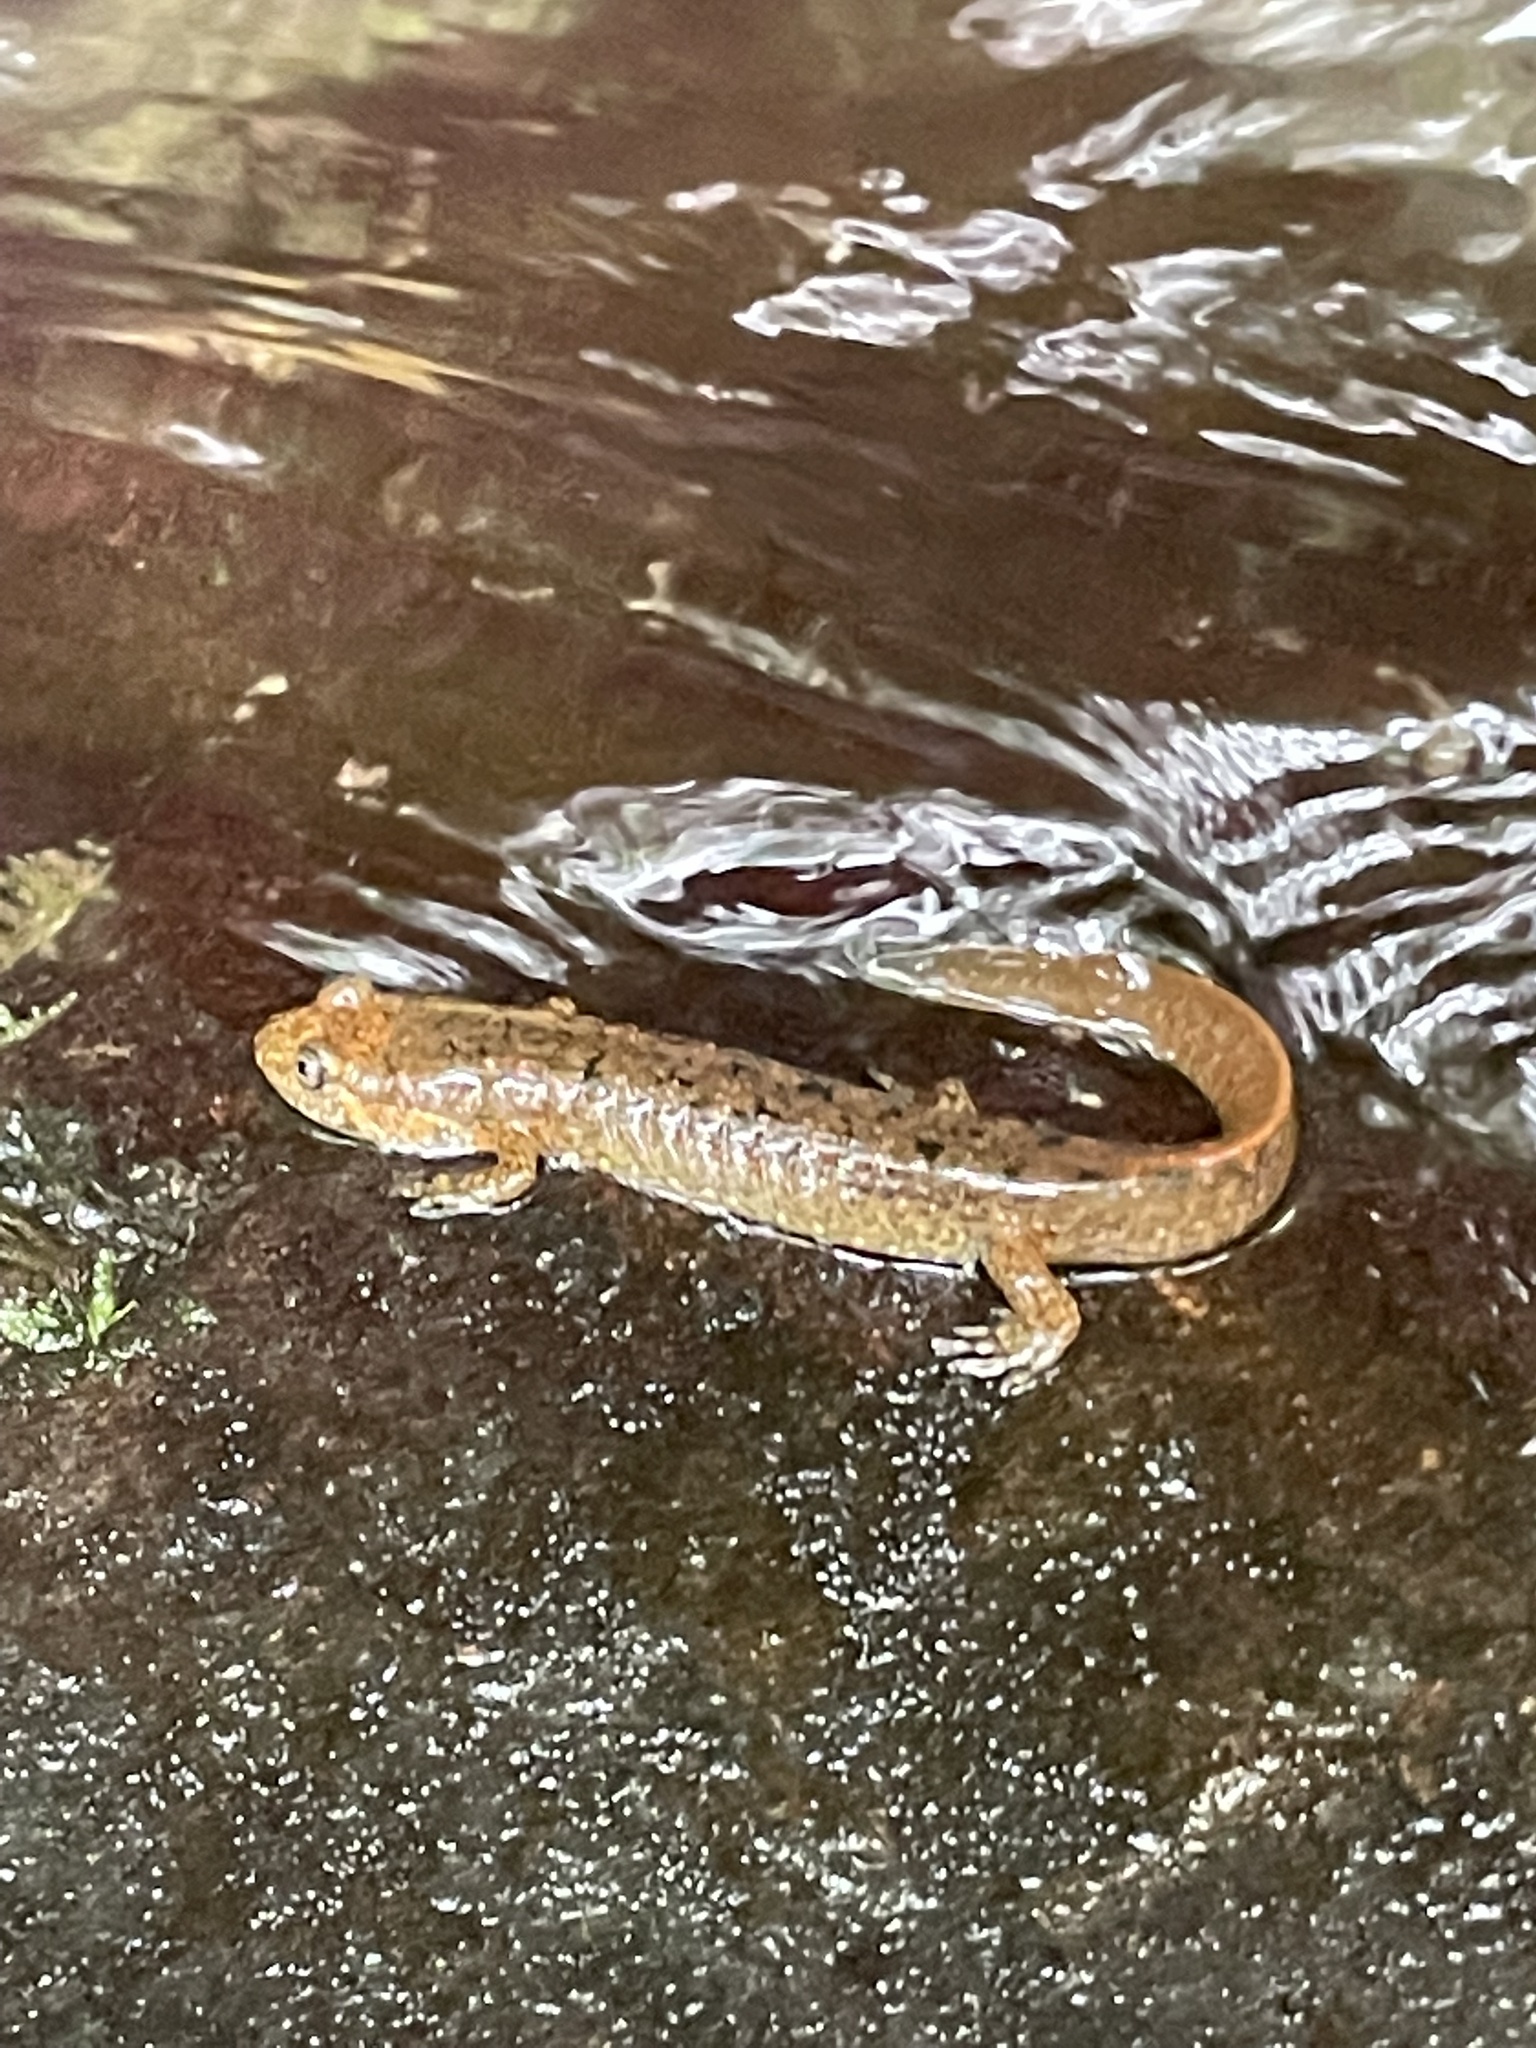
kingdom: Animalia
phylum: Chordata
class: Amphibia
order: Caudata
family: Plethodontidae
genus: Desmognathus
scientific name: Desmognathus
